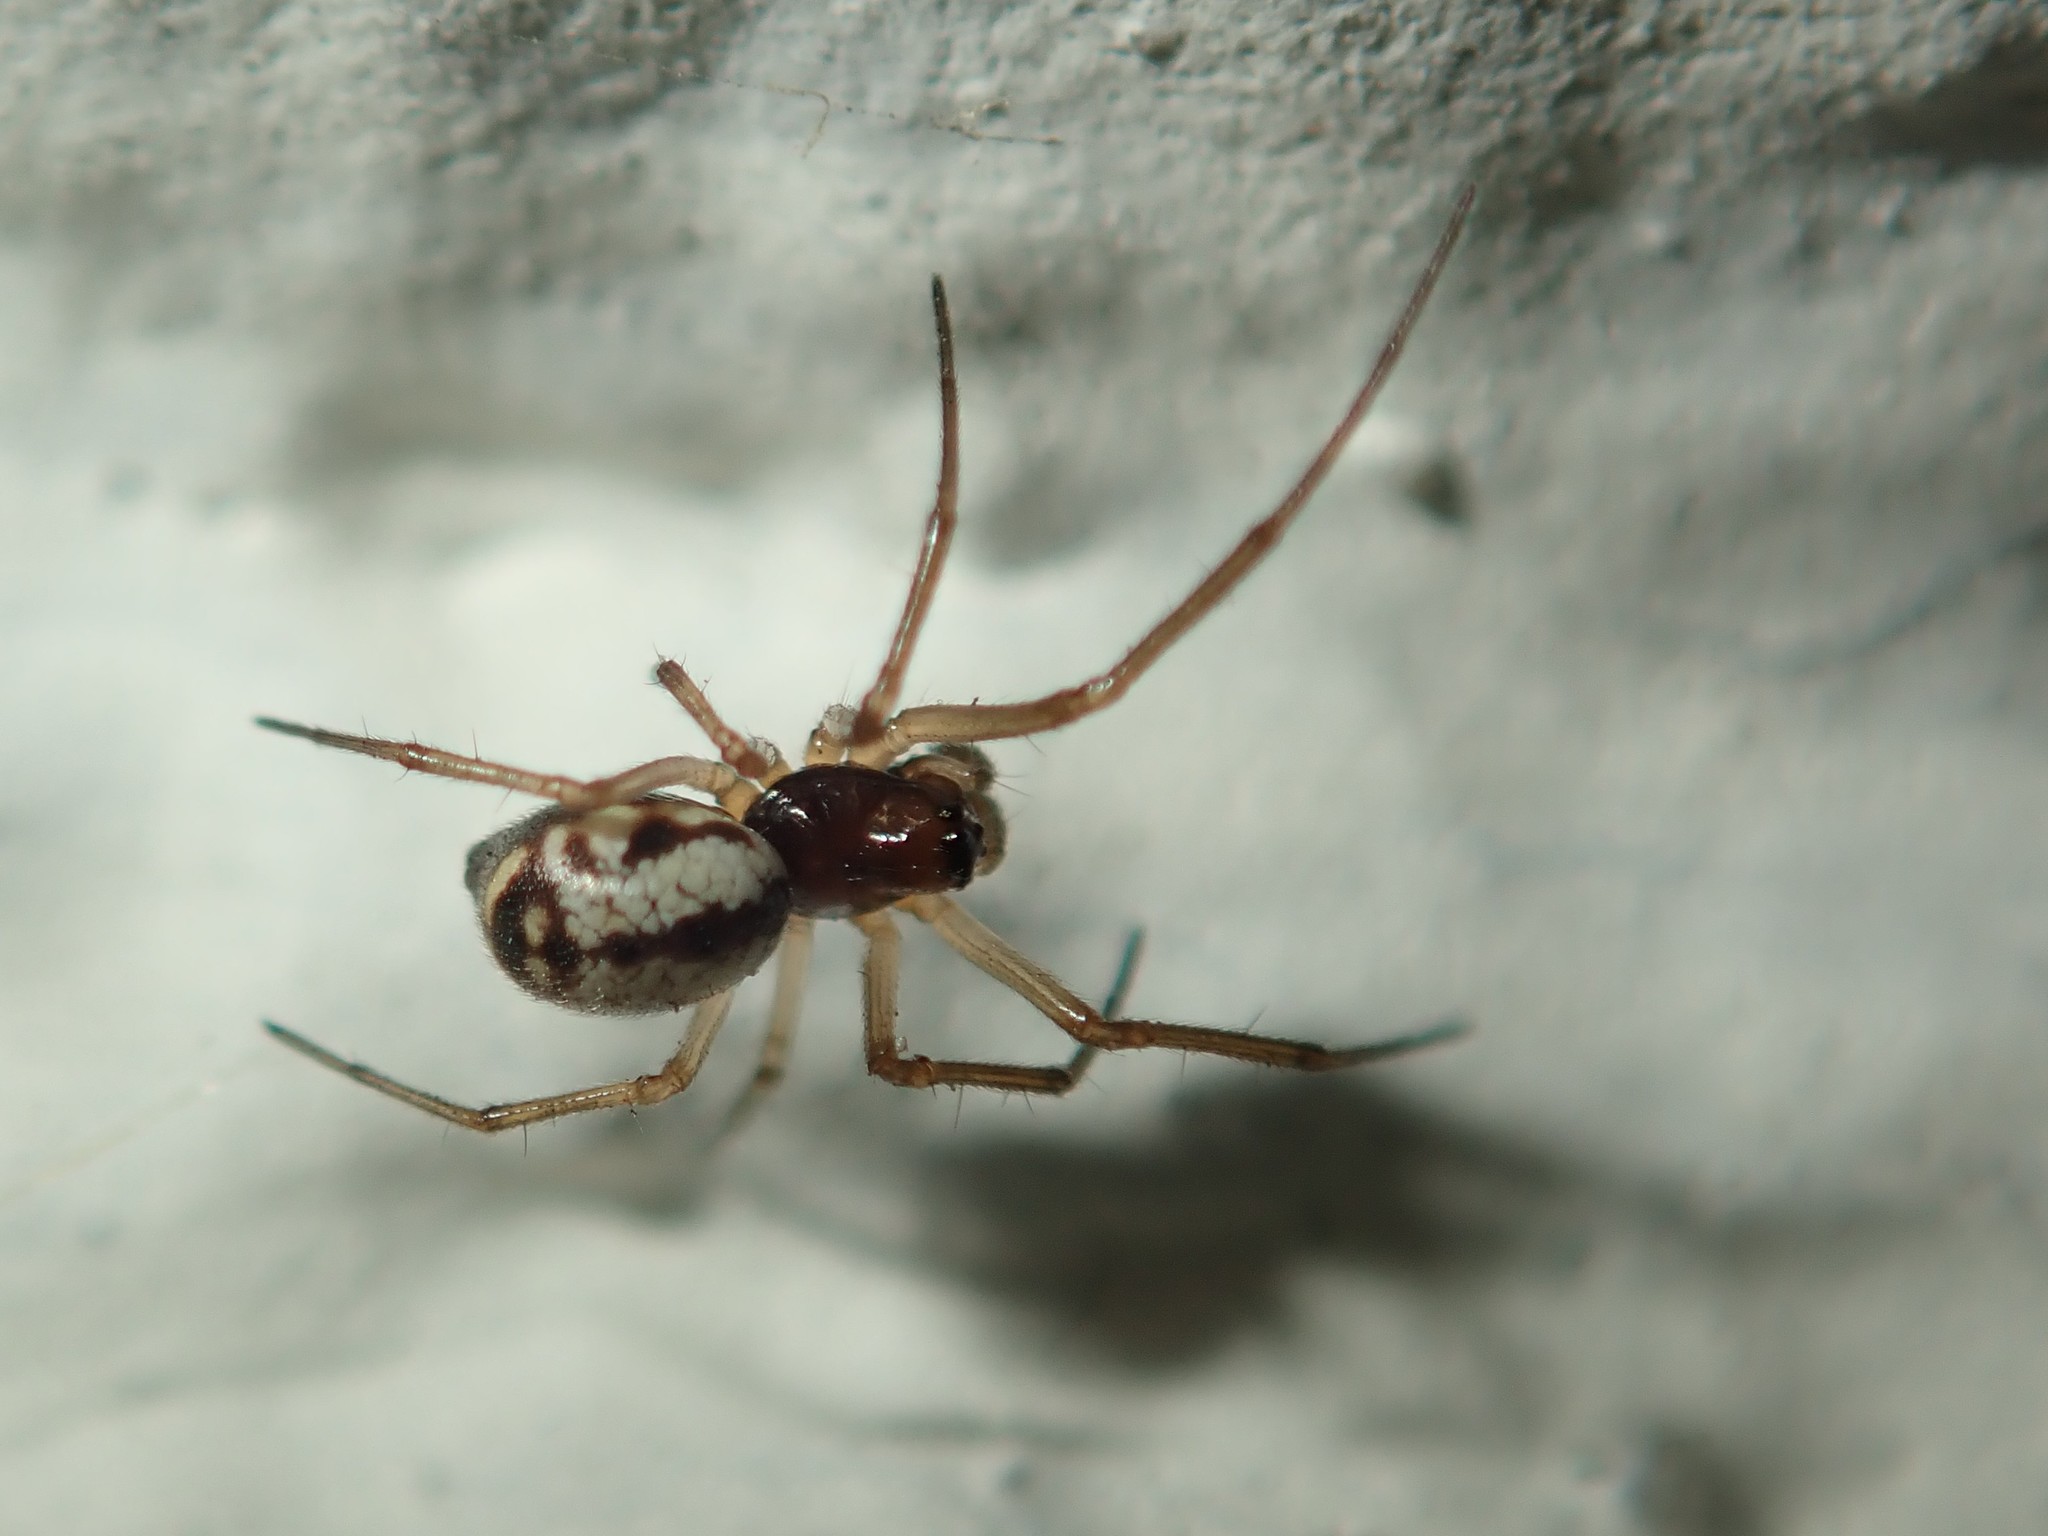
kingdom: Animalia
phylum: Arthropoda
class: Arachnida
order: Araneae
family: Linyphiidae
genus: Microlinyphia
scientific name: Microlinyphia pusilla
